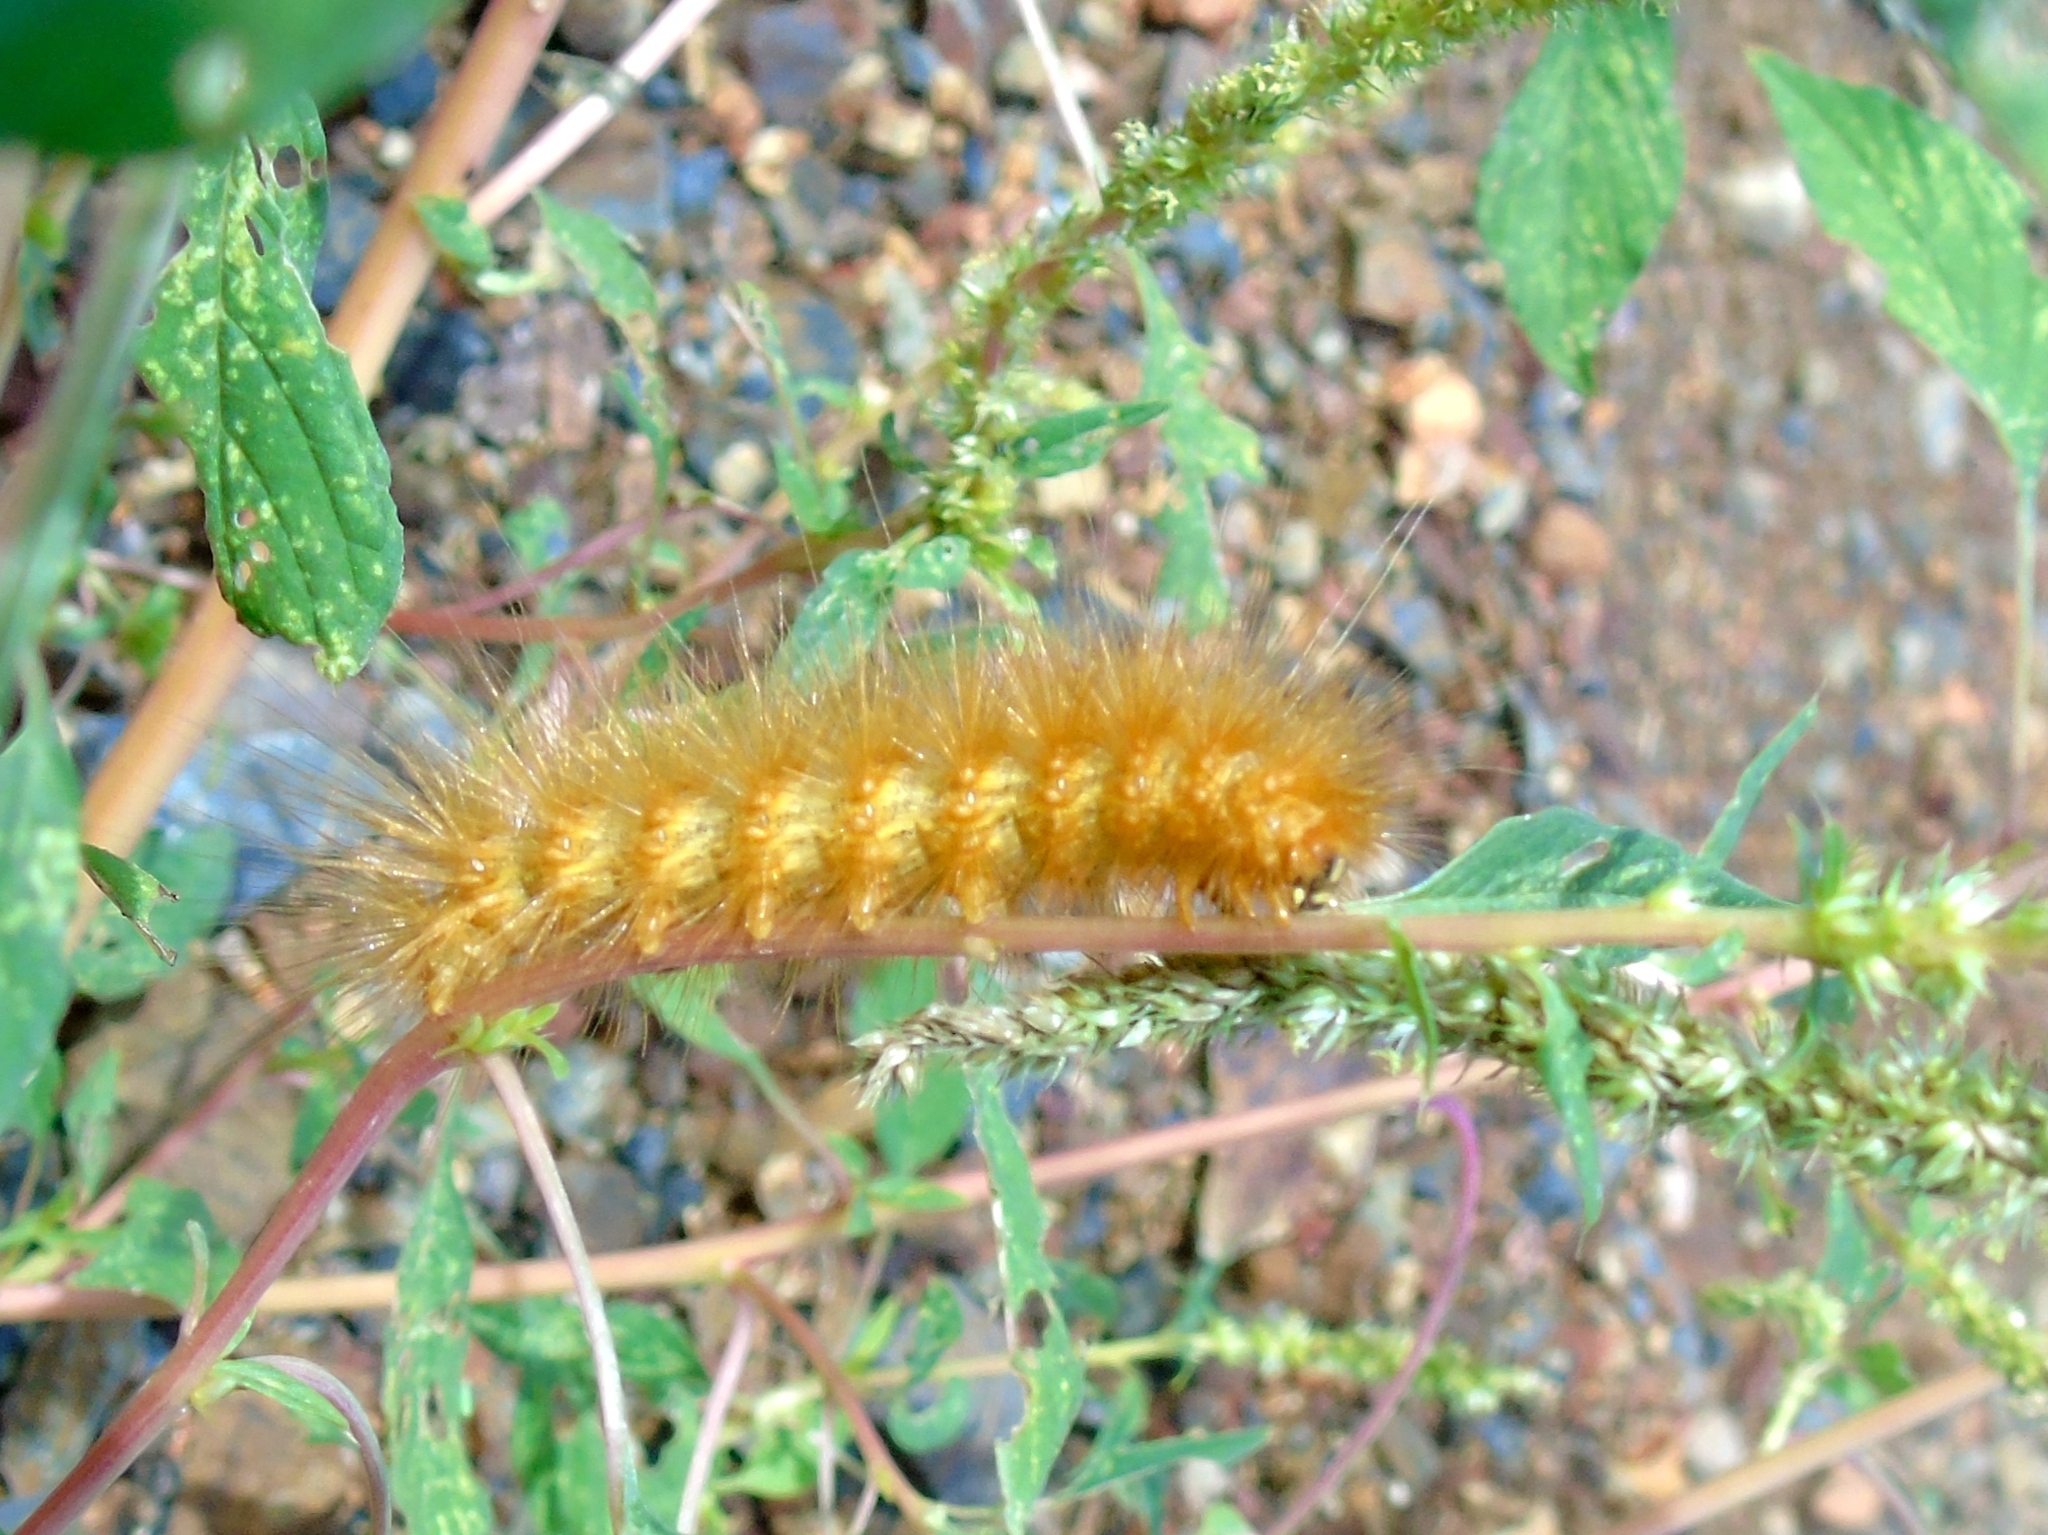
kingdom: Animalia
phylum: Arthropoda
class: Insecta
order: Lepidoptera
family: Erebidae
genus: Estigmene
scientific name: Estigmene acrea
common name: Salt marsh moth
